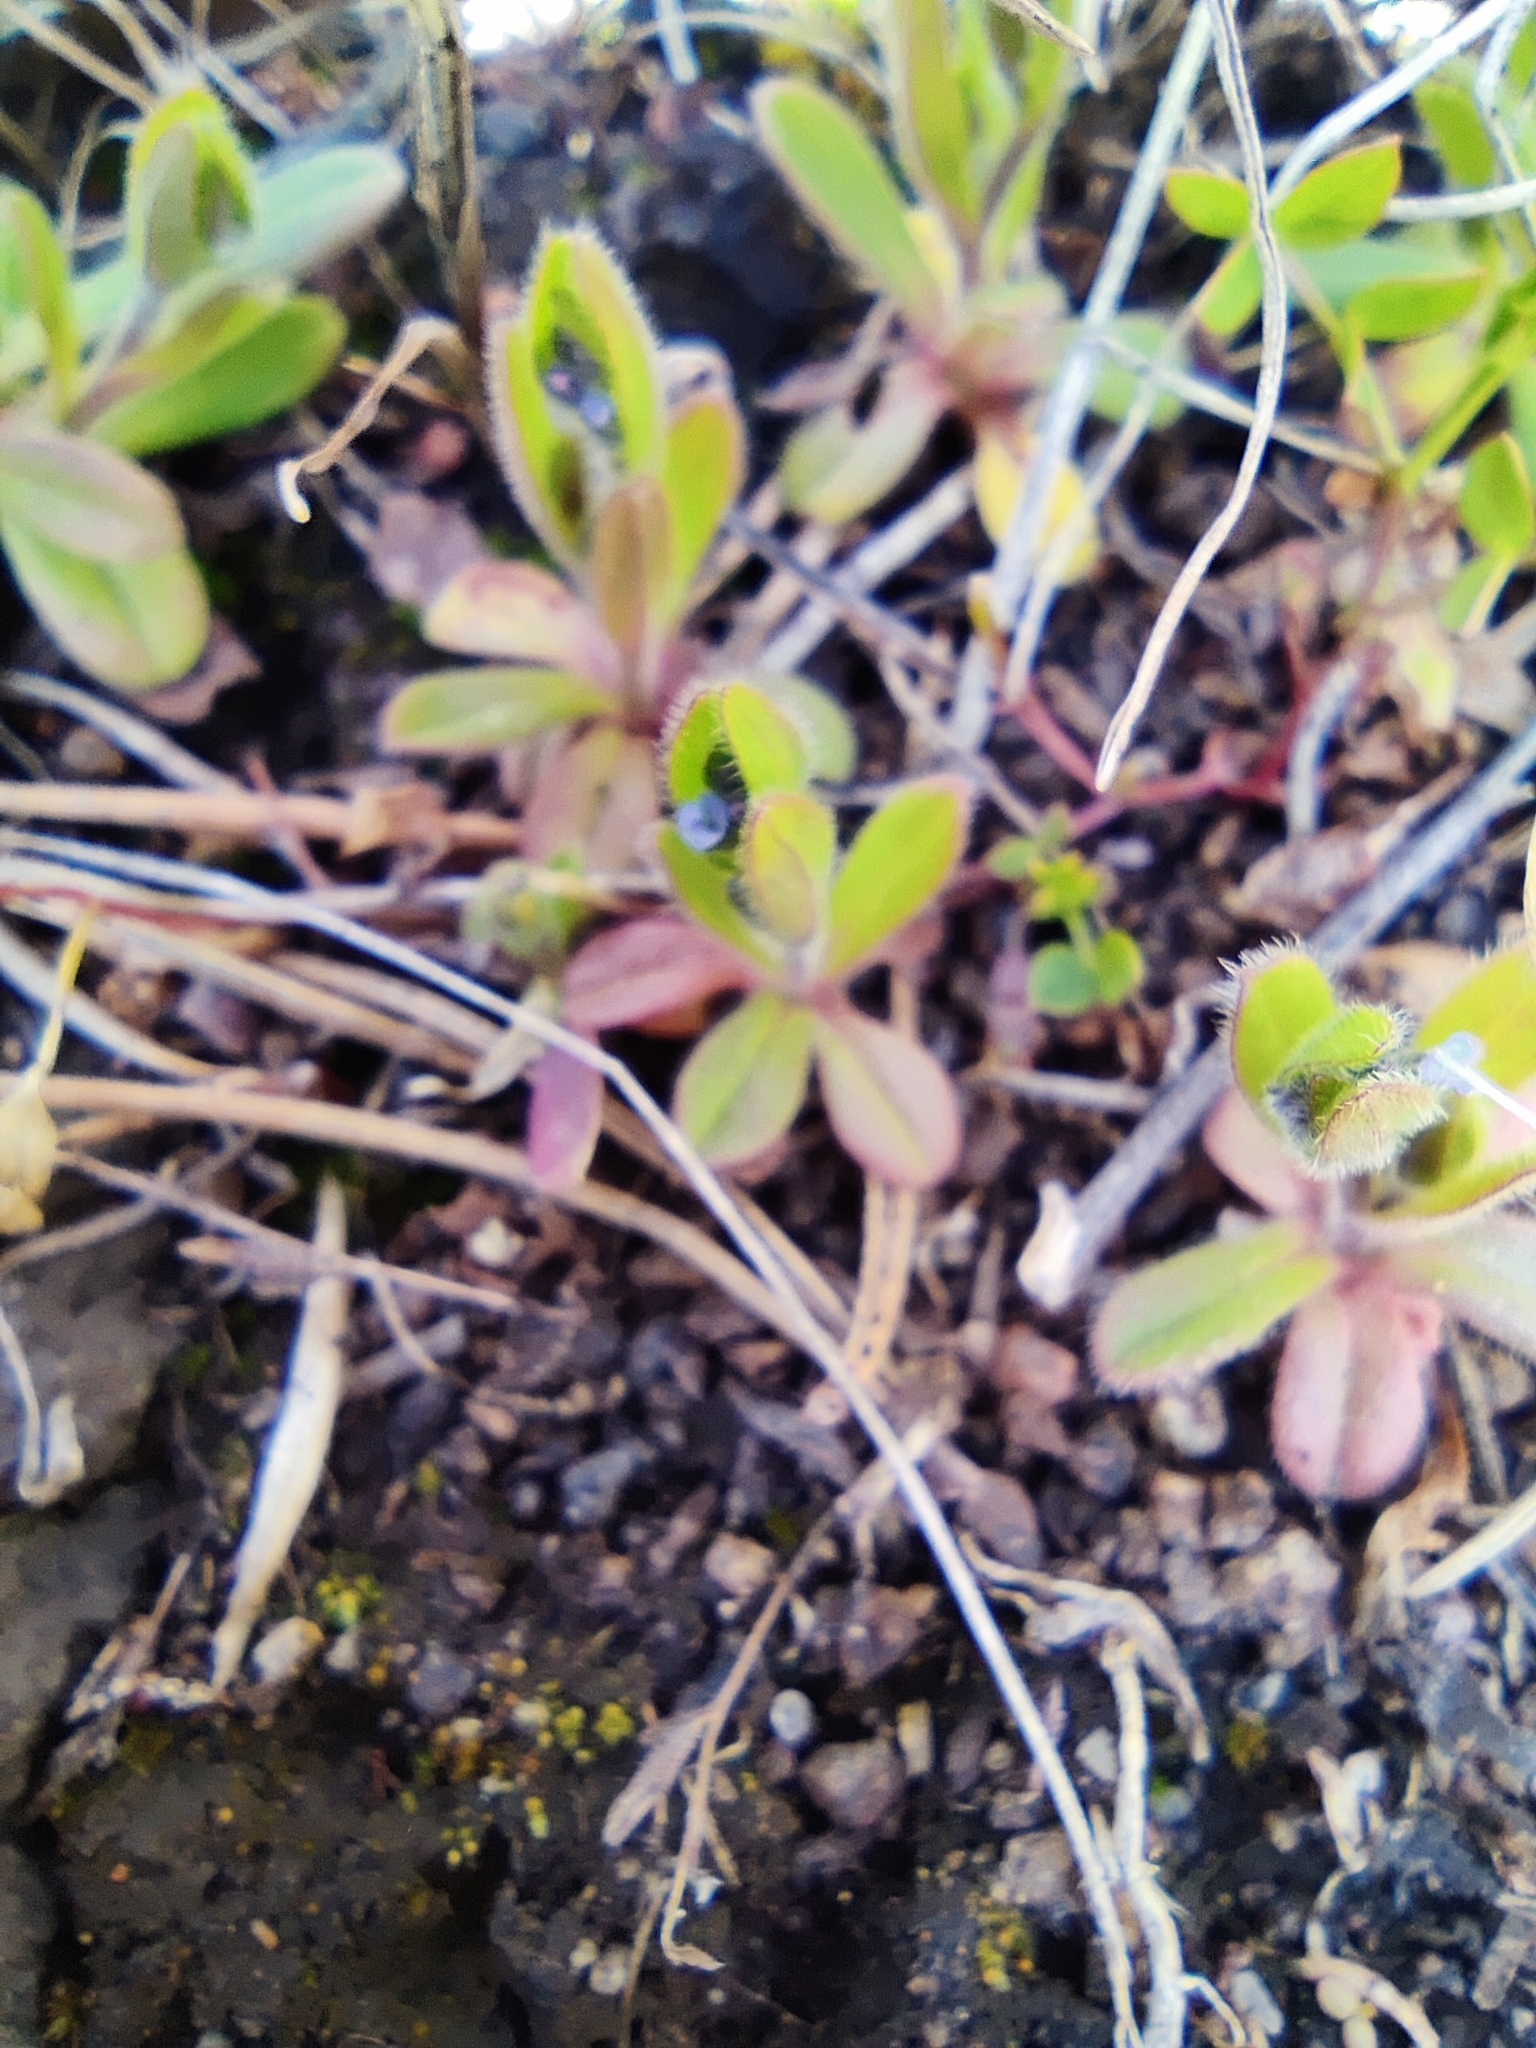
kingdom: Plantae
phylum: Tracheophyta
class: Magnoliopsida
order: Boraginales
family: Boraginaceae
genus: Myosotis
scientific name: Myosotis stricta
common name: Strict forget-me-not
